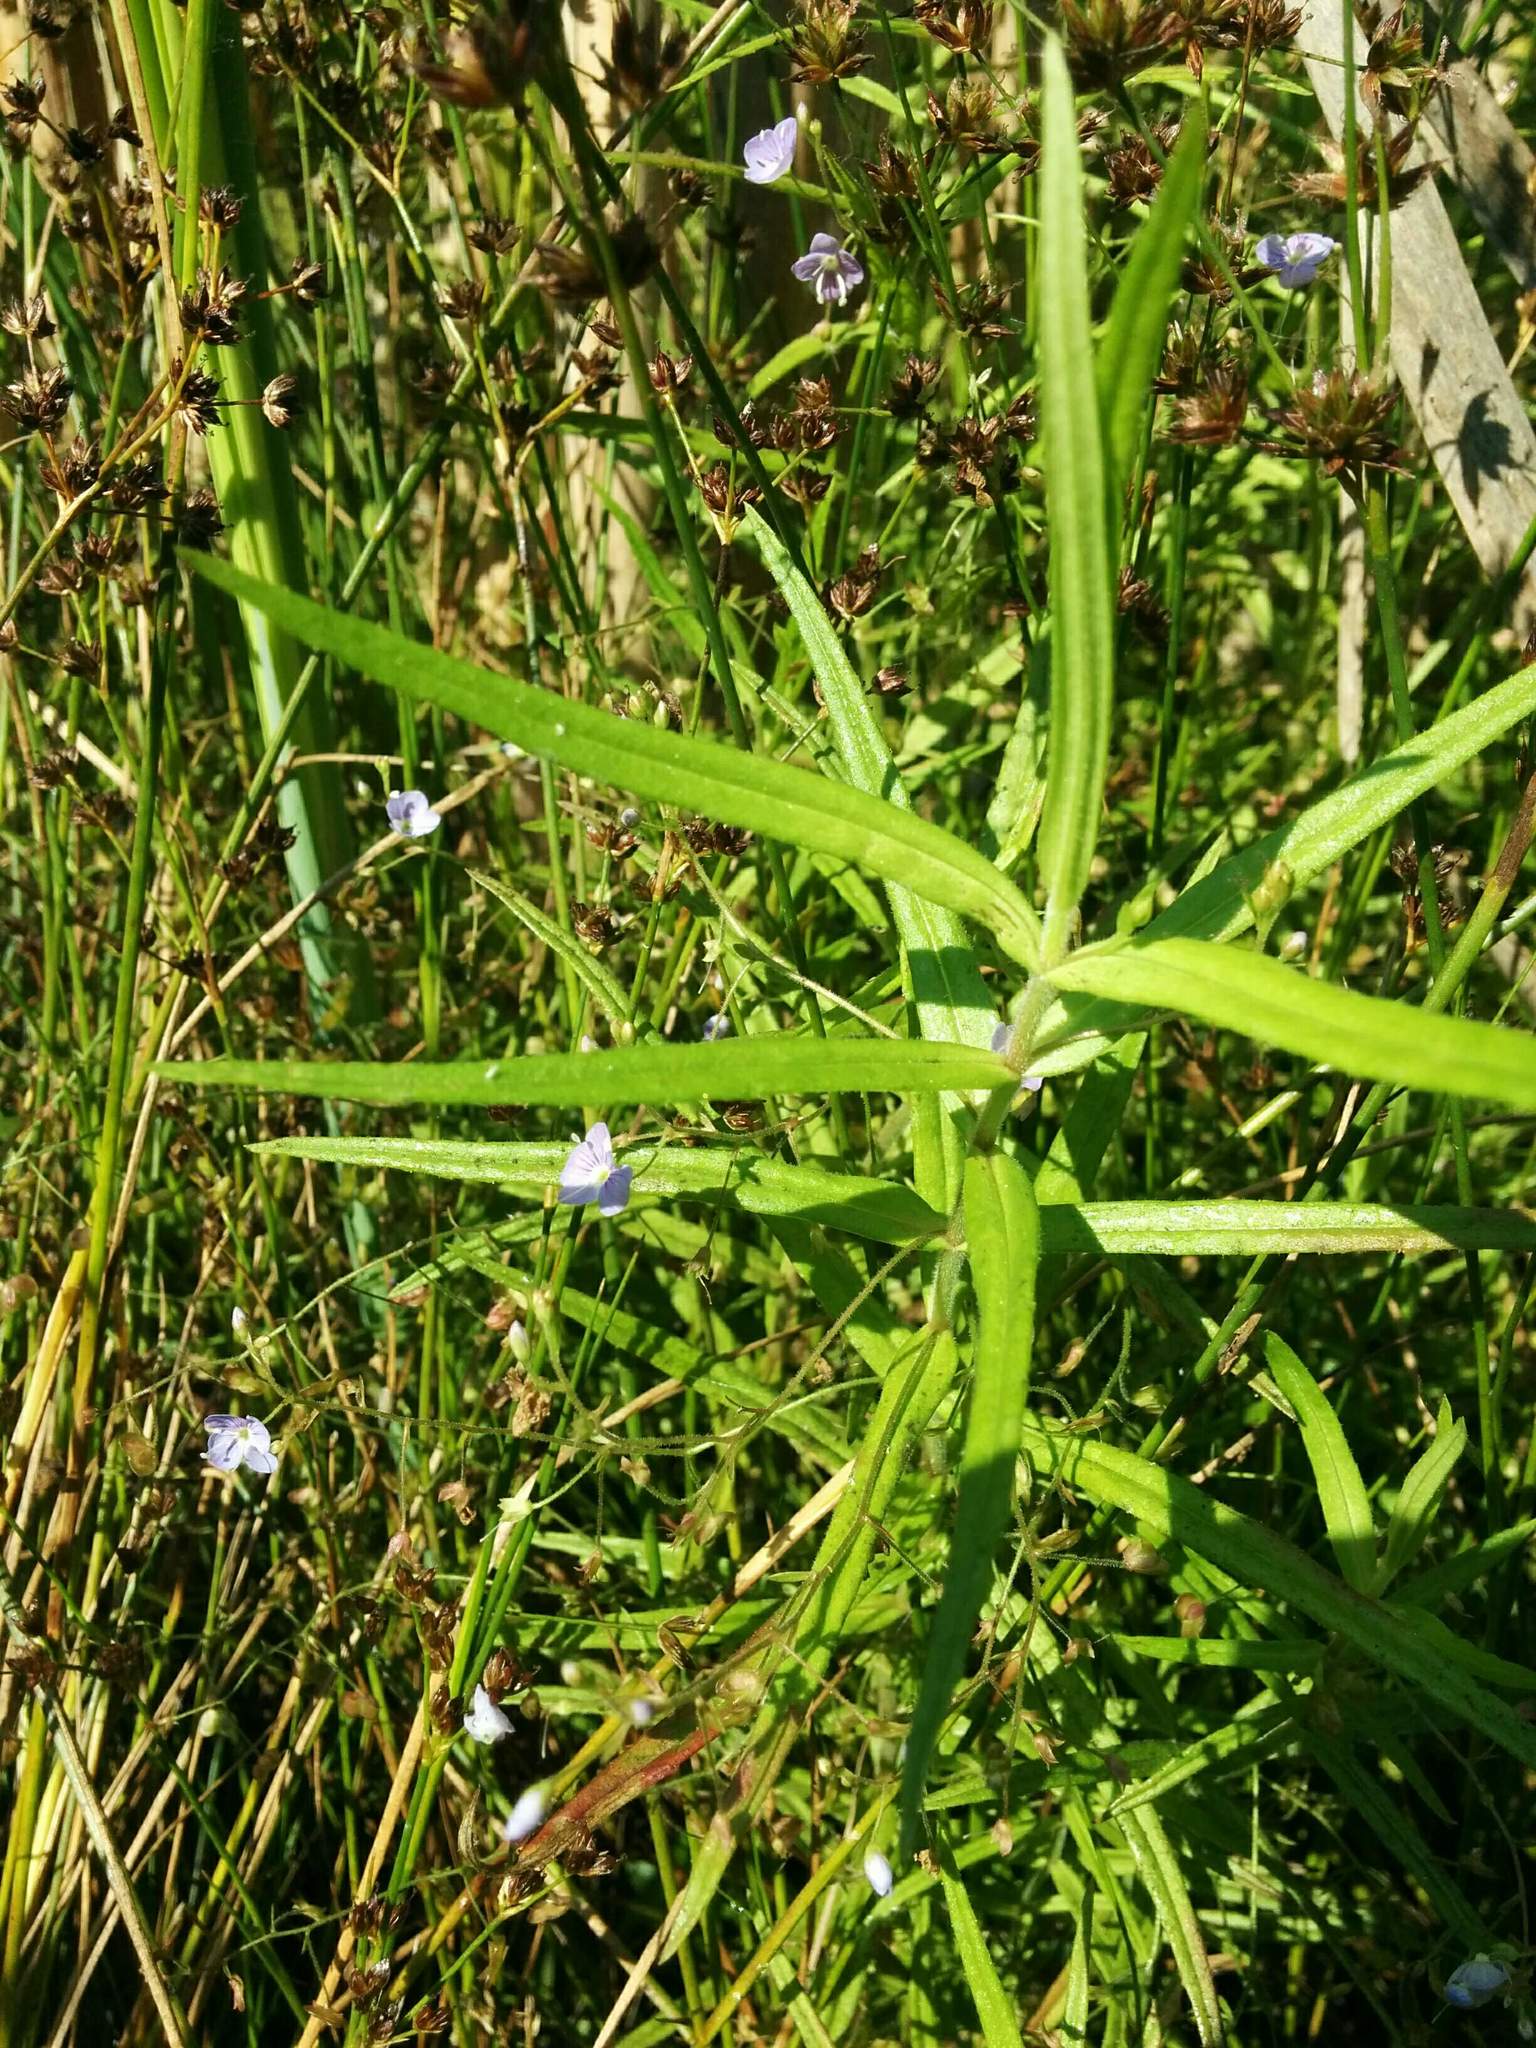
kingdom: Plantae
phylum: Tracheophyta
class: Magnoliopsida
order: Lamiales
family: Plantaginaceae
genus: Veronica
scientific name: Veronica scutellata
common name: Marsh speedwell
